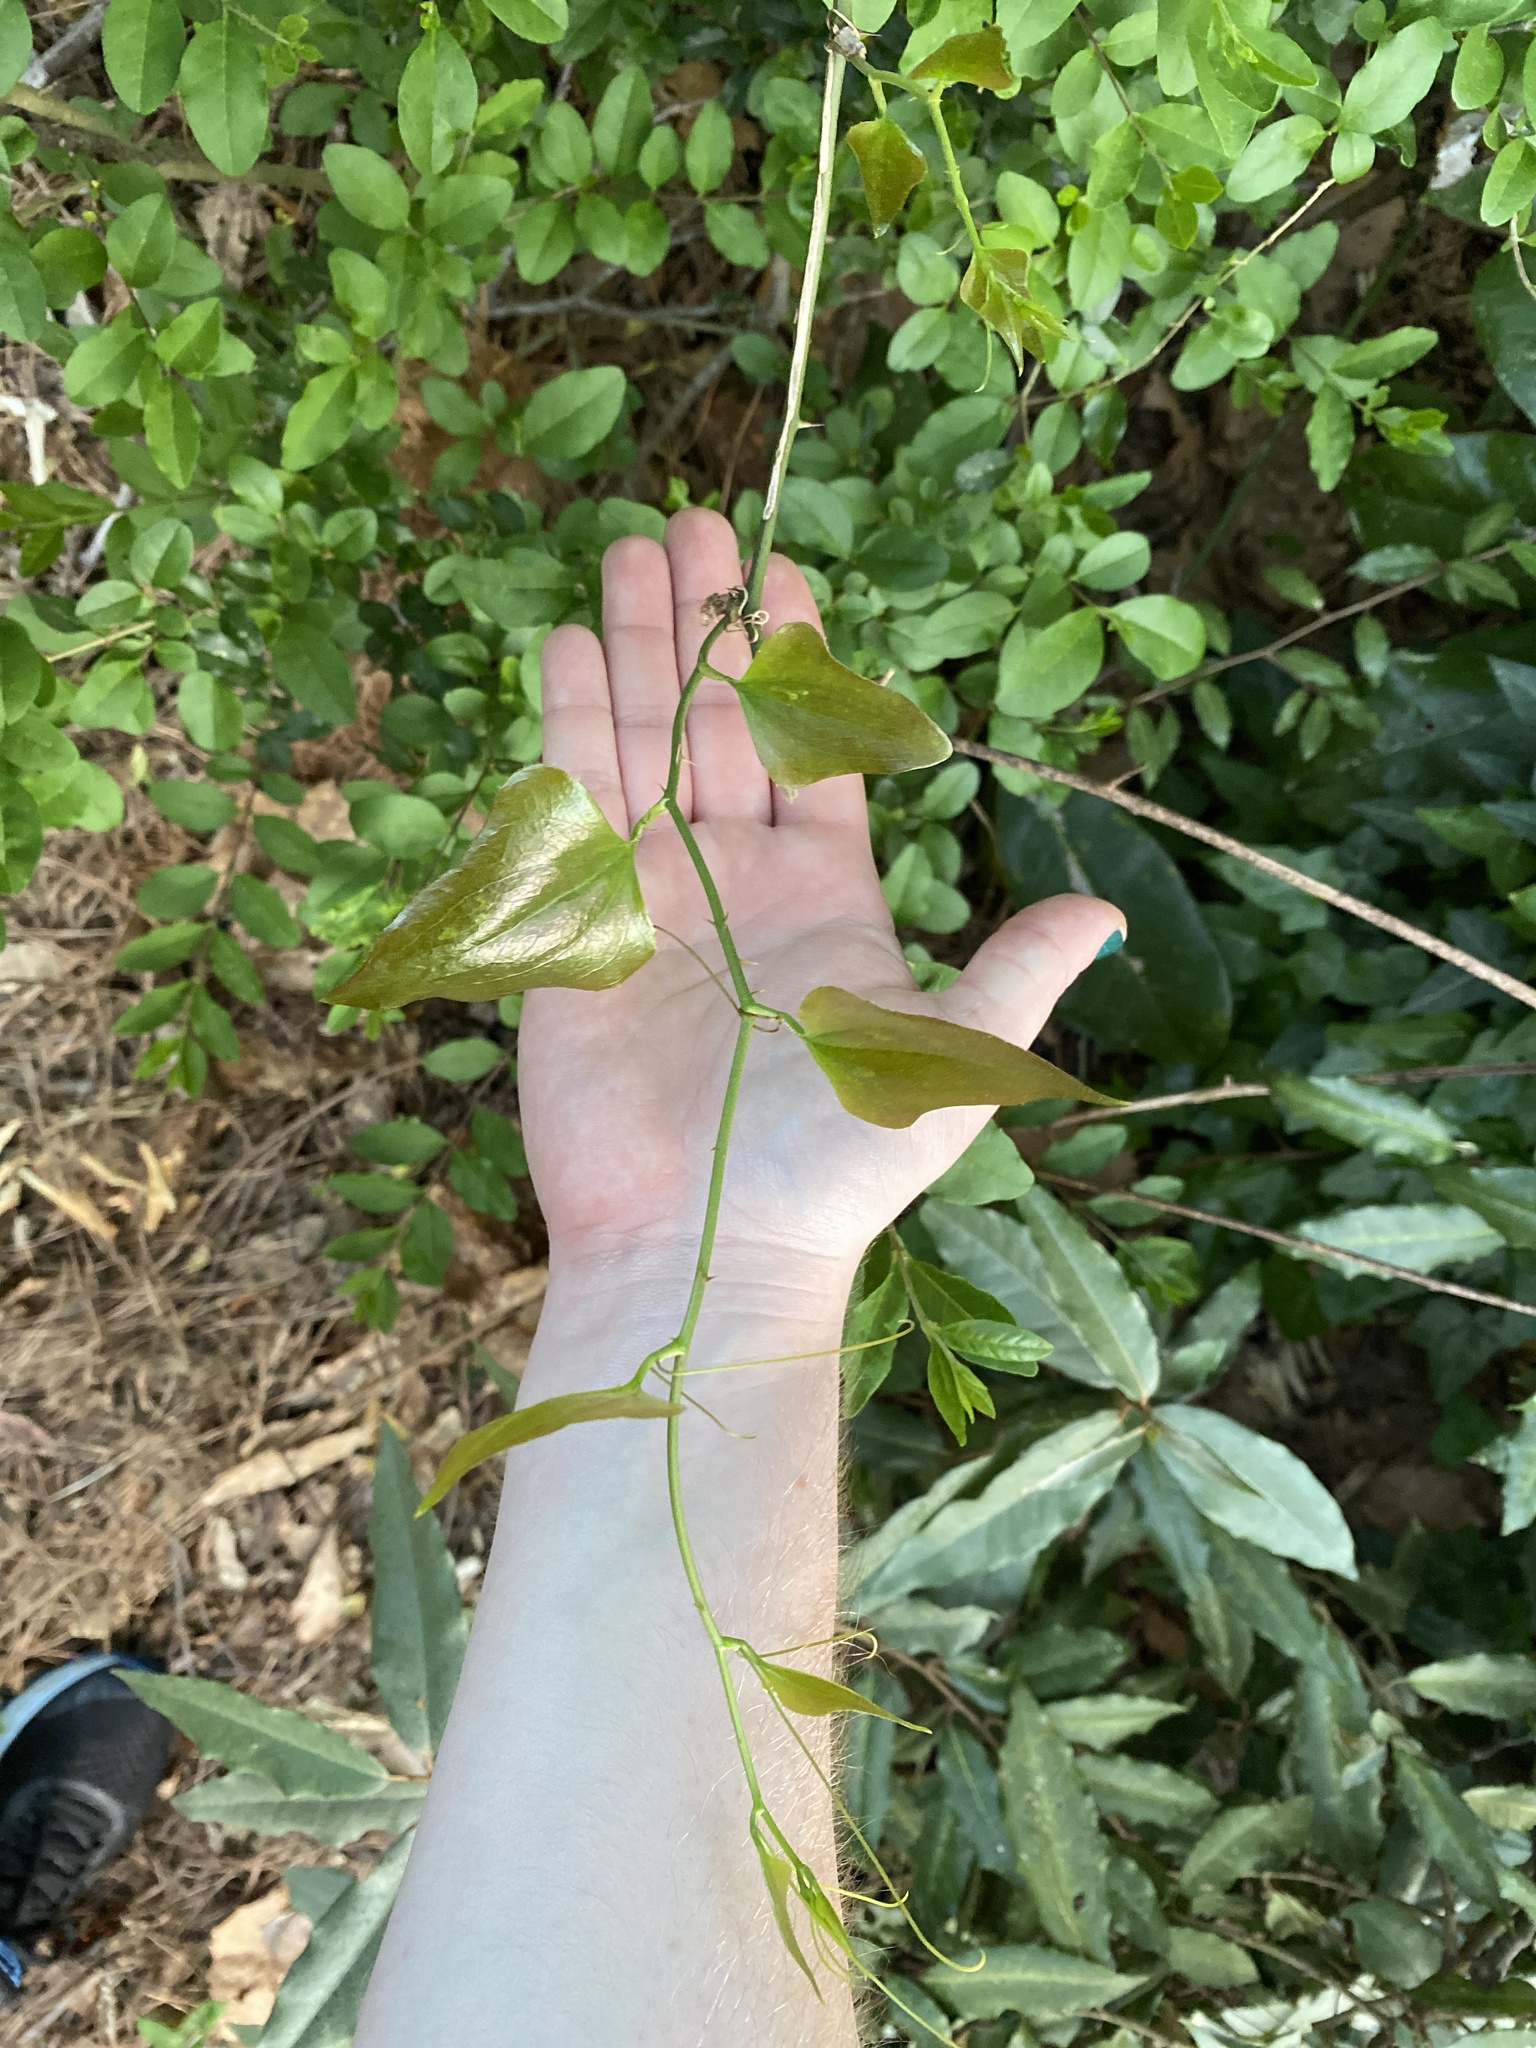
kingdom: Plantae
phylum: Tracheophyta
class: Liliopsida
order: Liliales
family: Smilacaceae
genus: Smilax
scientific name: Smilax bona-nox
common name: Catbrier
